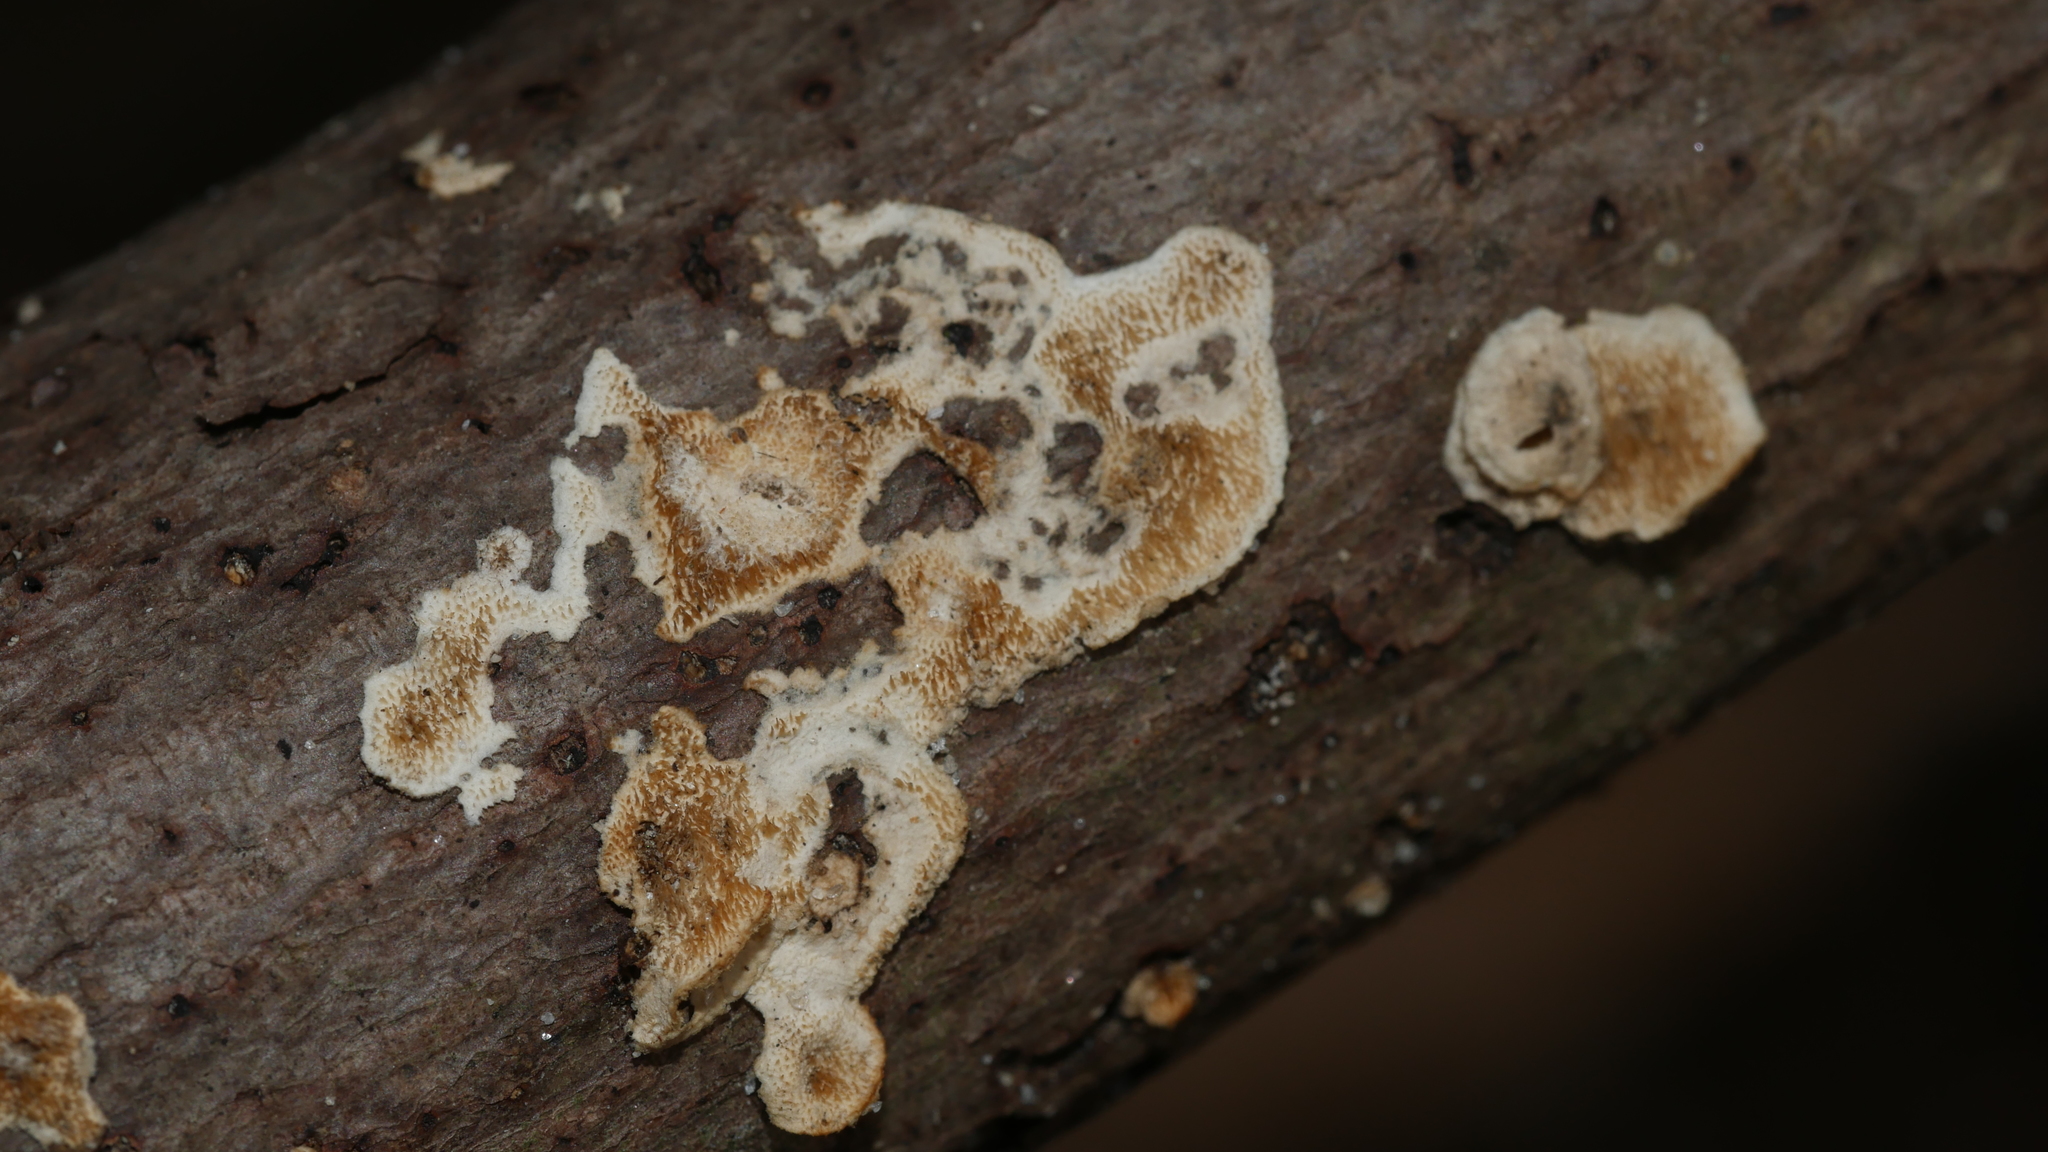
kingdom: Fungi
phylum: Basidiomycota
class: Agaricomycetes
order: Russulales
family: Peniophoraceae
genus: Peniophora
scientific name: Peniophora albobadia
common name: Giraffe spots
